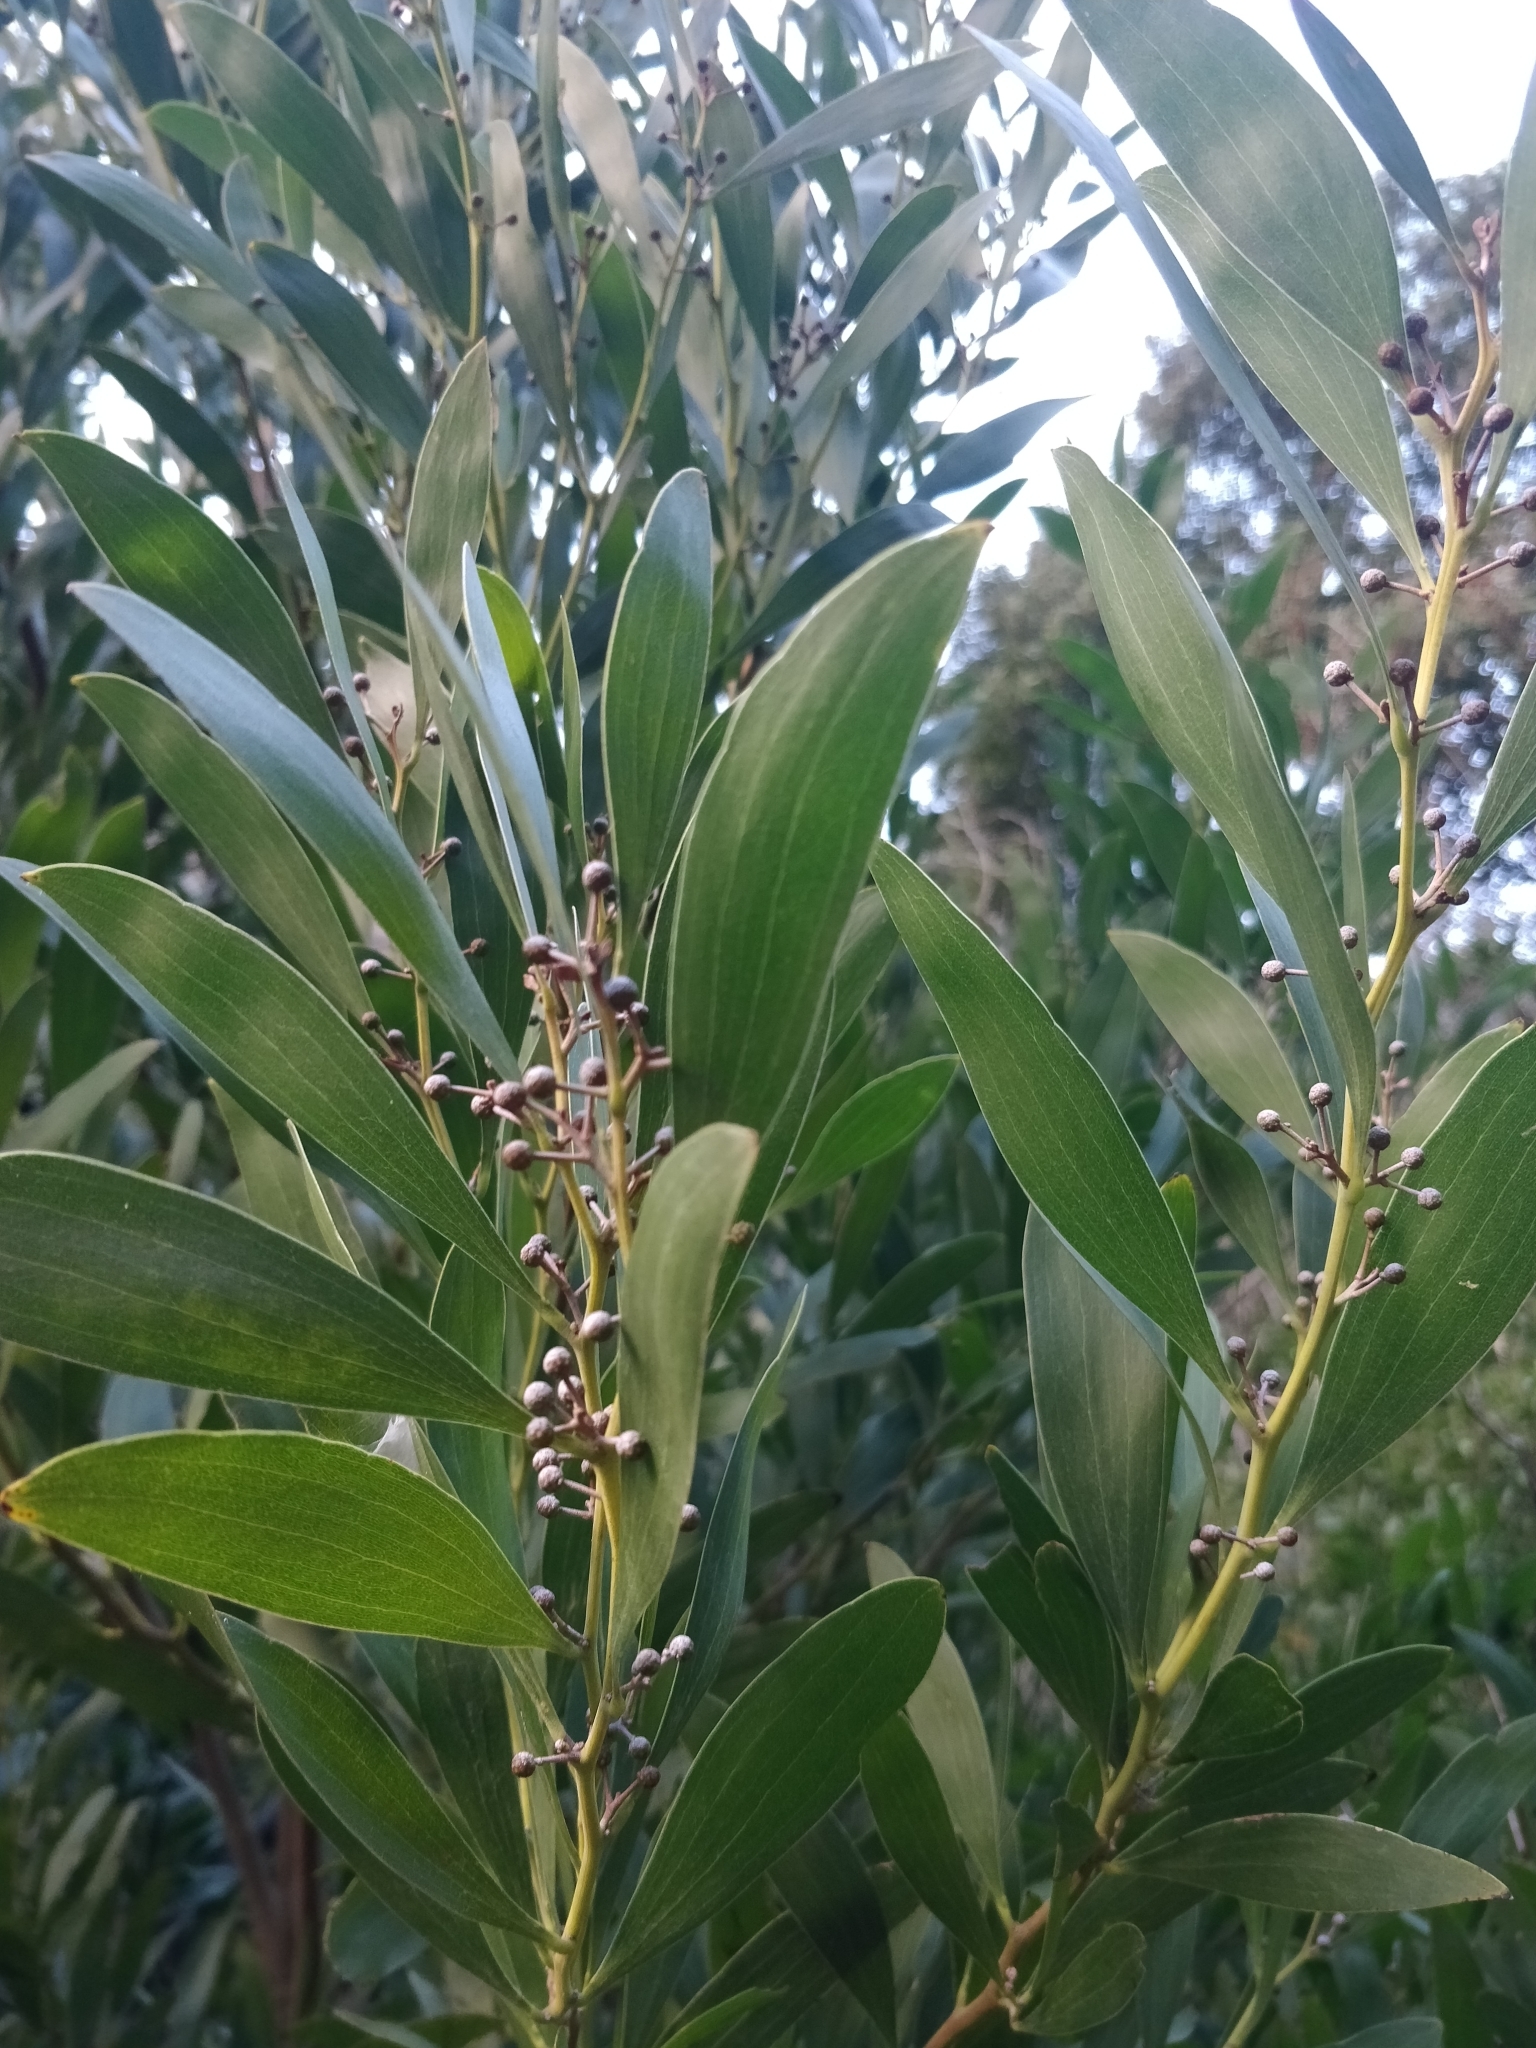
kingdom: Plantae
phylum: Tracheophyta
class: Magnoliopsida
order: Fabales
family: Fabaceae
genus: Acacia
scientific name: Acacia melanoxylon
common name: Blackwood
